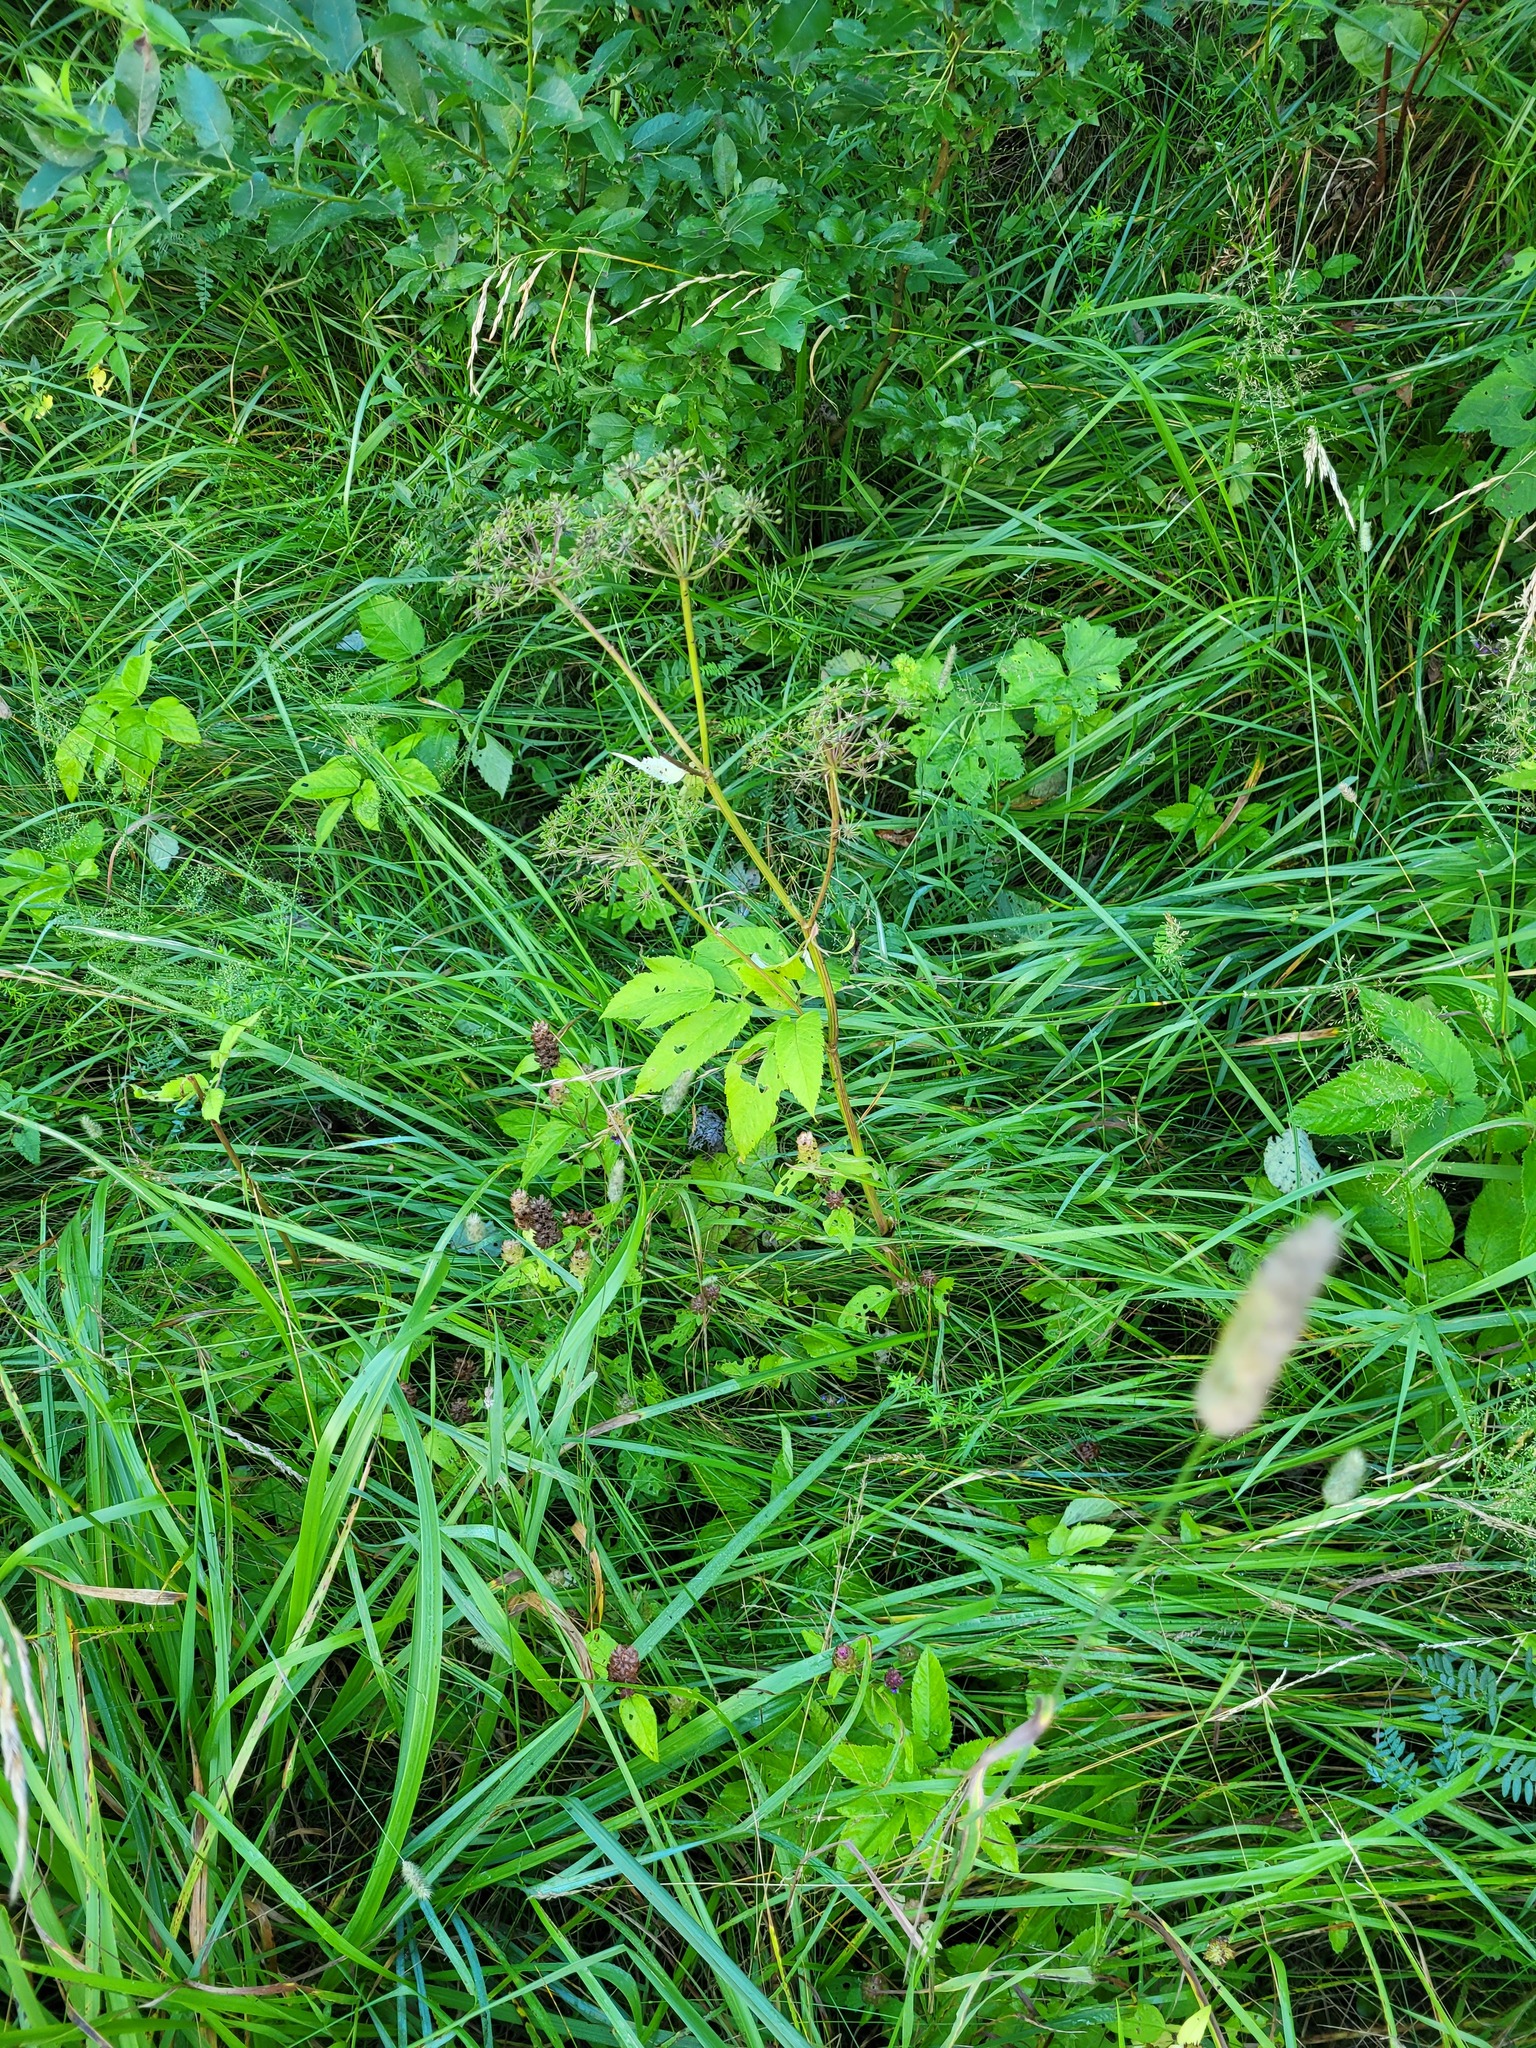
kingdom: Plantae
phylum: Tracheophyta
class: Magnoliopsida
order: Apiales
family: Apiaceae
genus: Aegopodium
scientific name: Aegopodium podagraria
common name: Ground-elder
